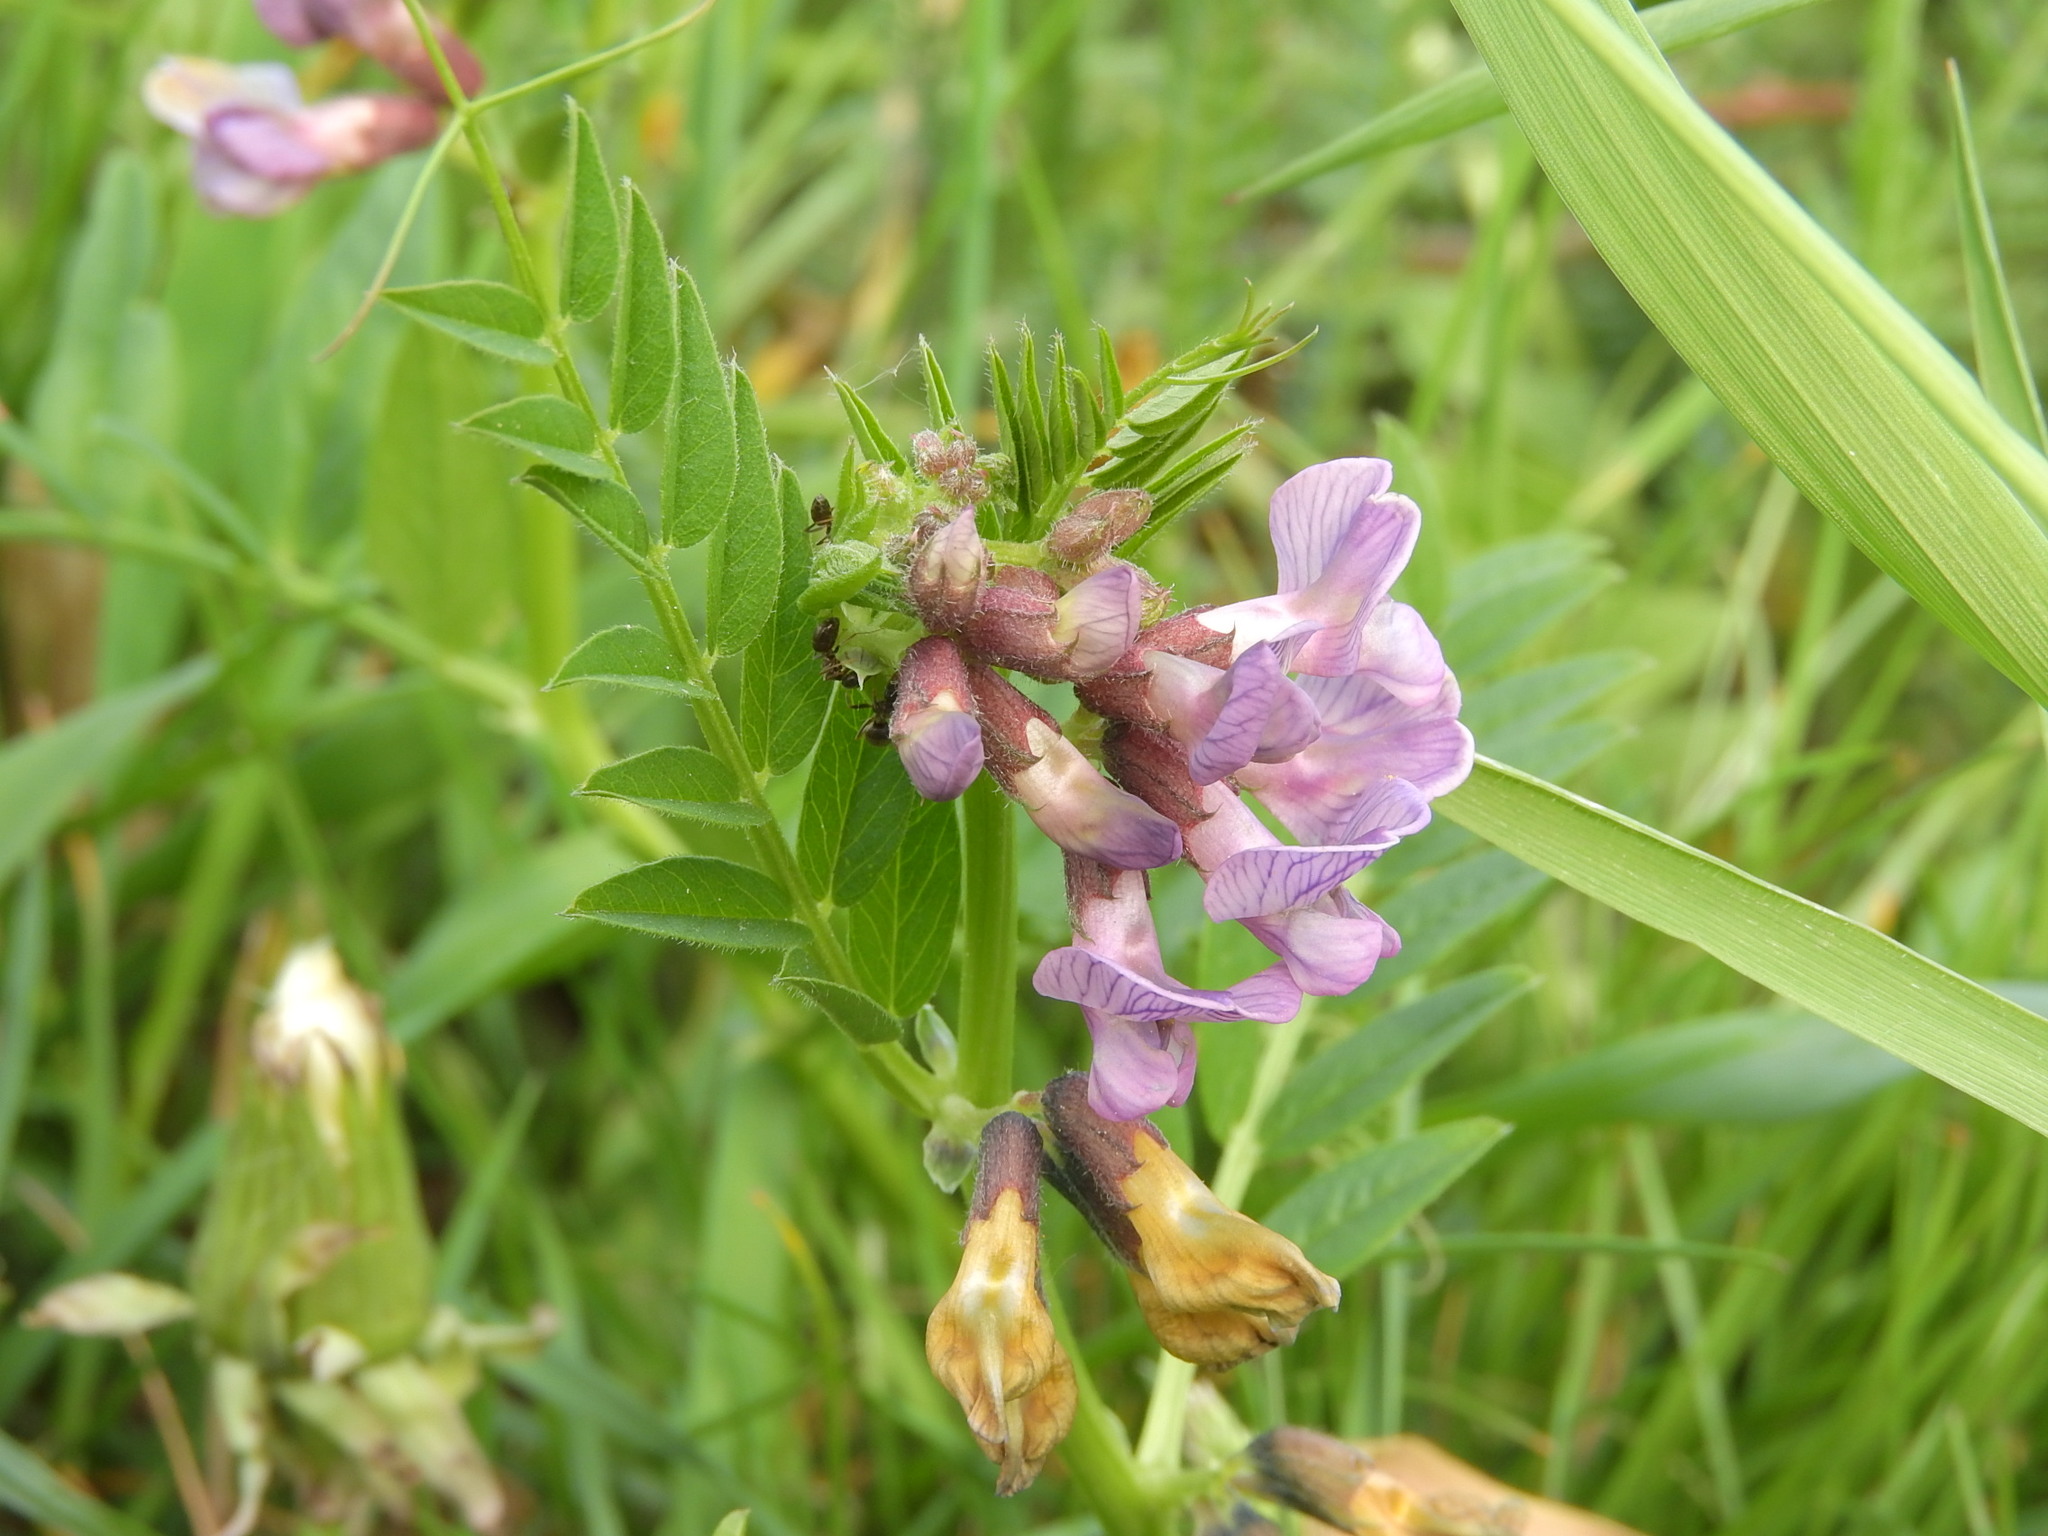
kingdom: Plantae
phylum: Tracheophyta
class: Magnoliopsida
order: Fabales
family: Fabaceae
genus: Vicia
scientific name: Vicia sepium
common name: Bush vetch
